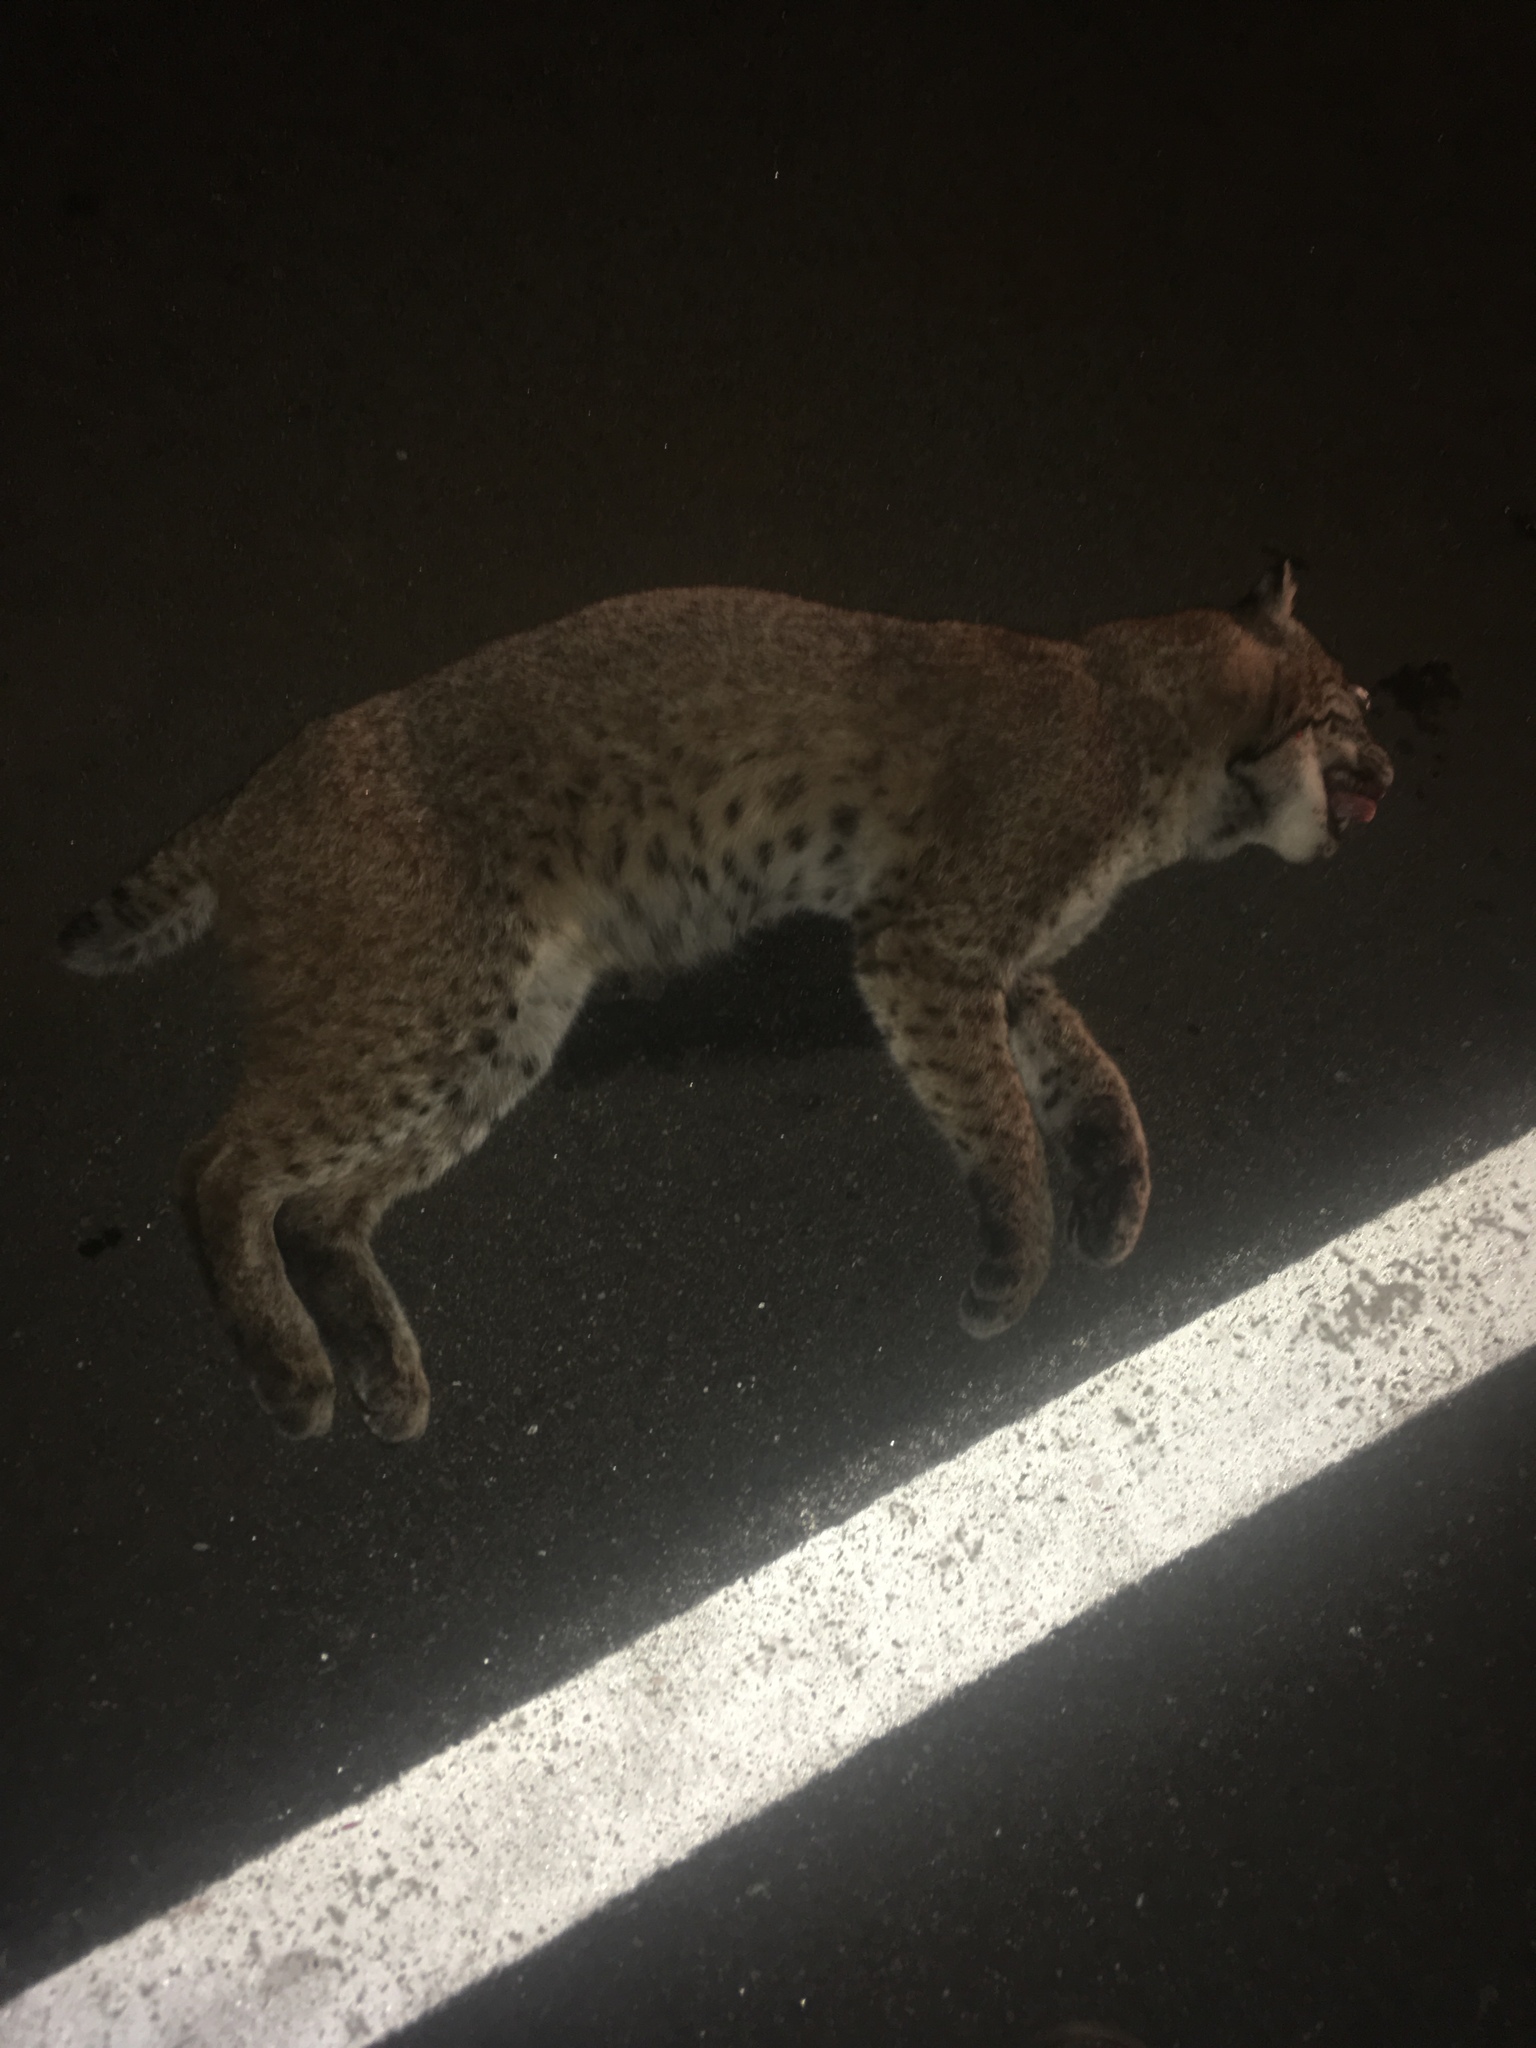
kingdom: Animalia
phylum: Chordata
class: Mammalia
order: Carnivora
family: Felidae
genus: Lynx
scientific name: Lynx rufus
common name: Bobcat
